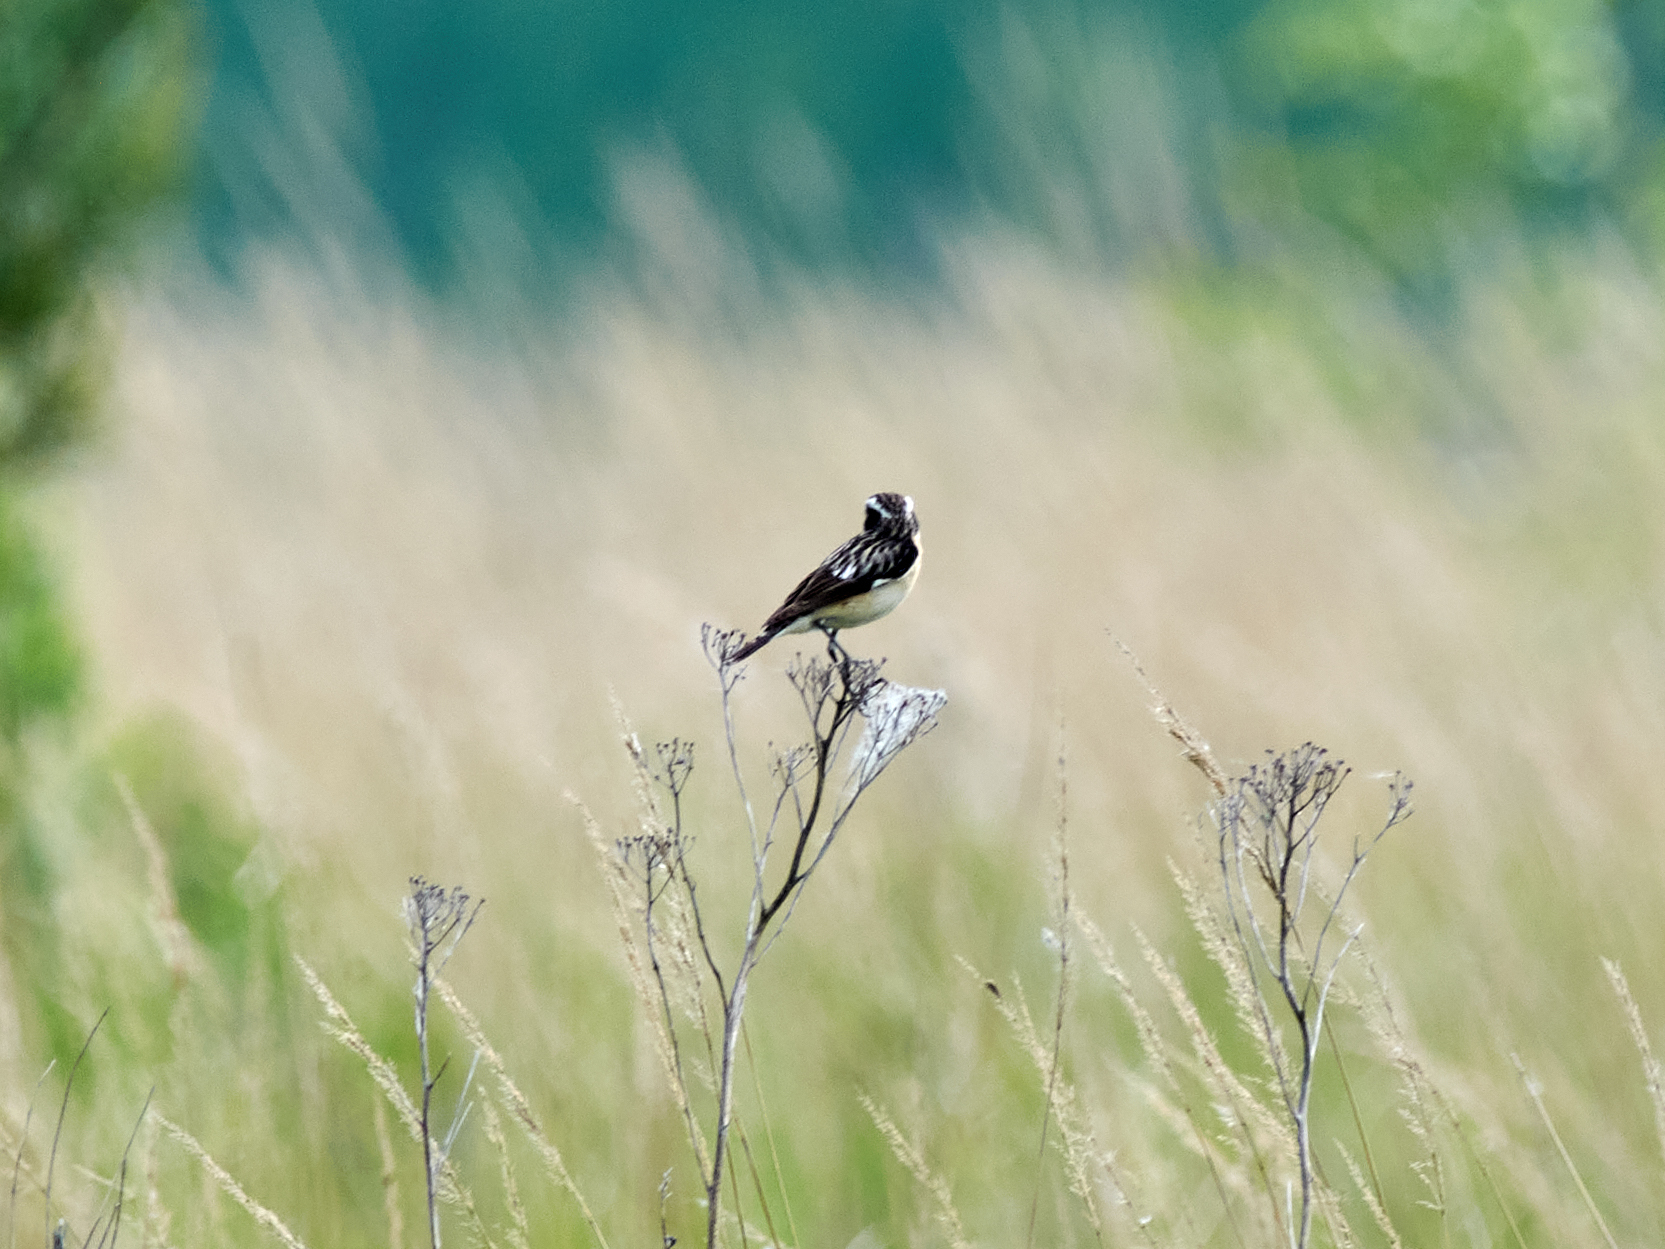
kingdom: Animalia
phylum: Chordata
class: Aves
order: Passeriformes
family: Muscicapidae
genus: Saxicola
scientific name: Saxicola rubetra
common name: Whinchat
